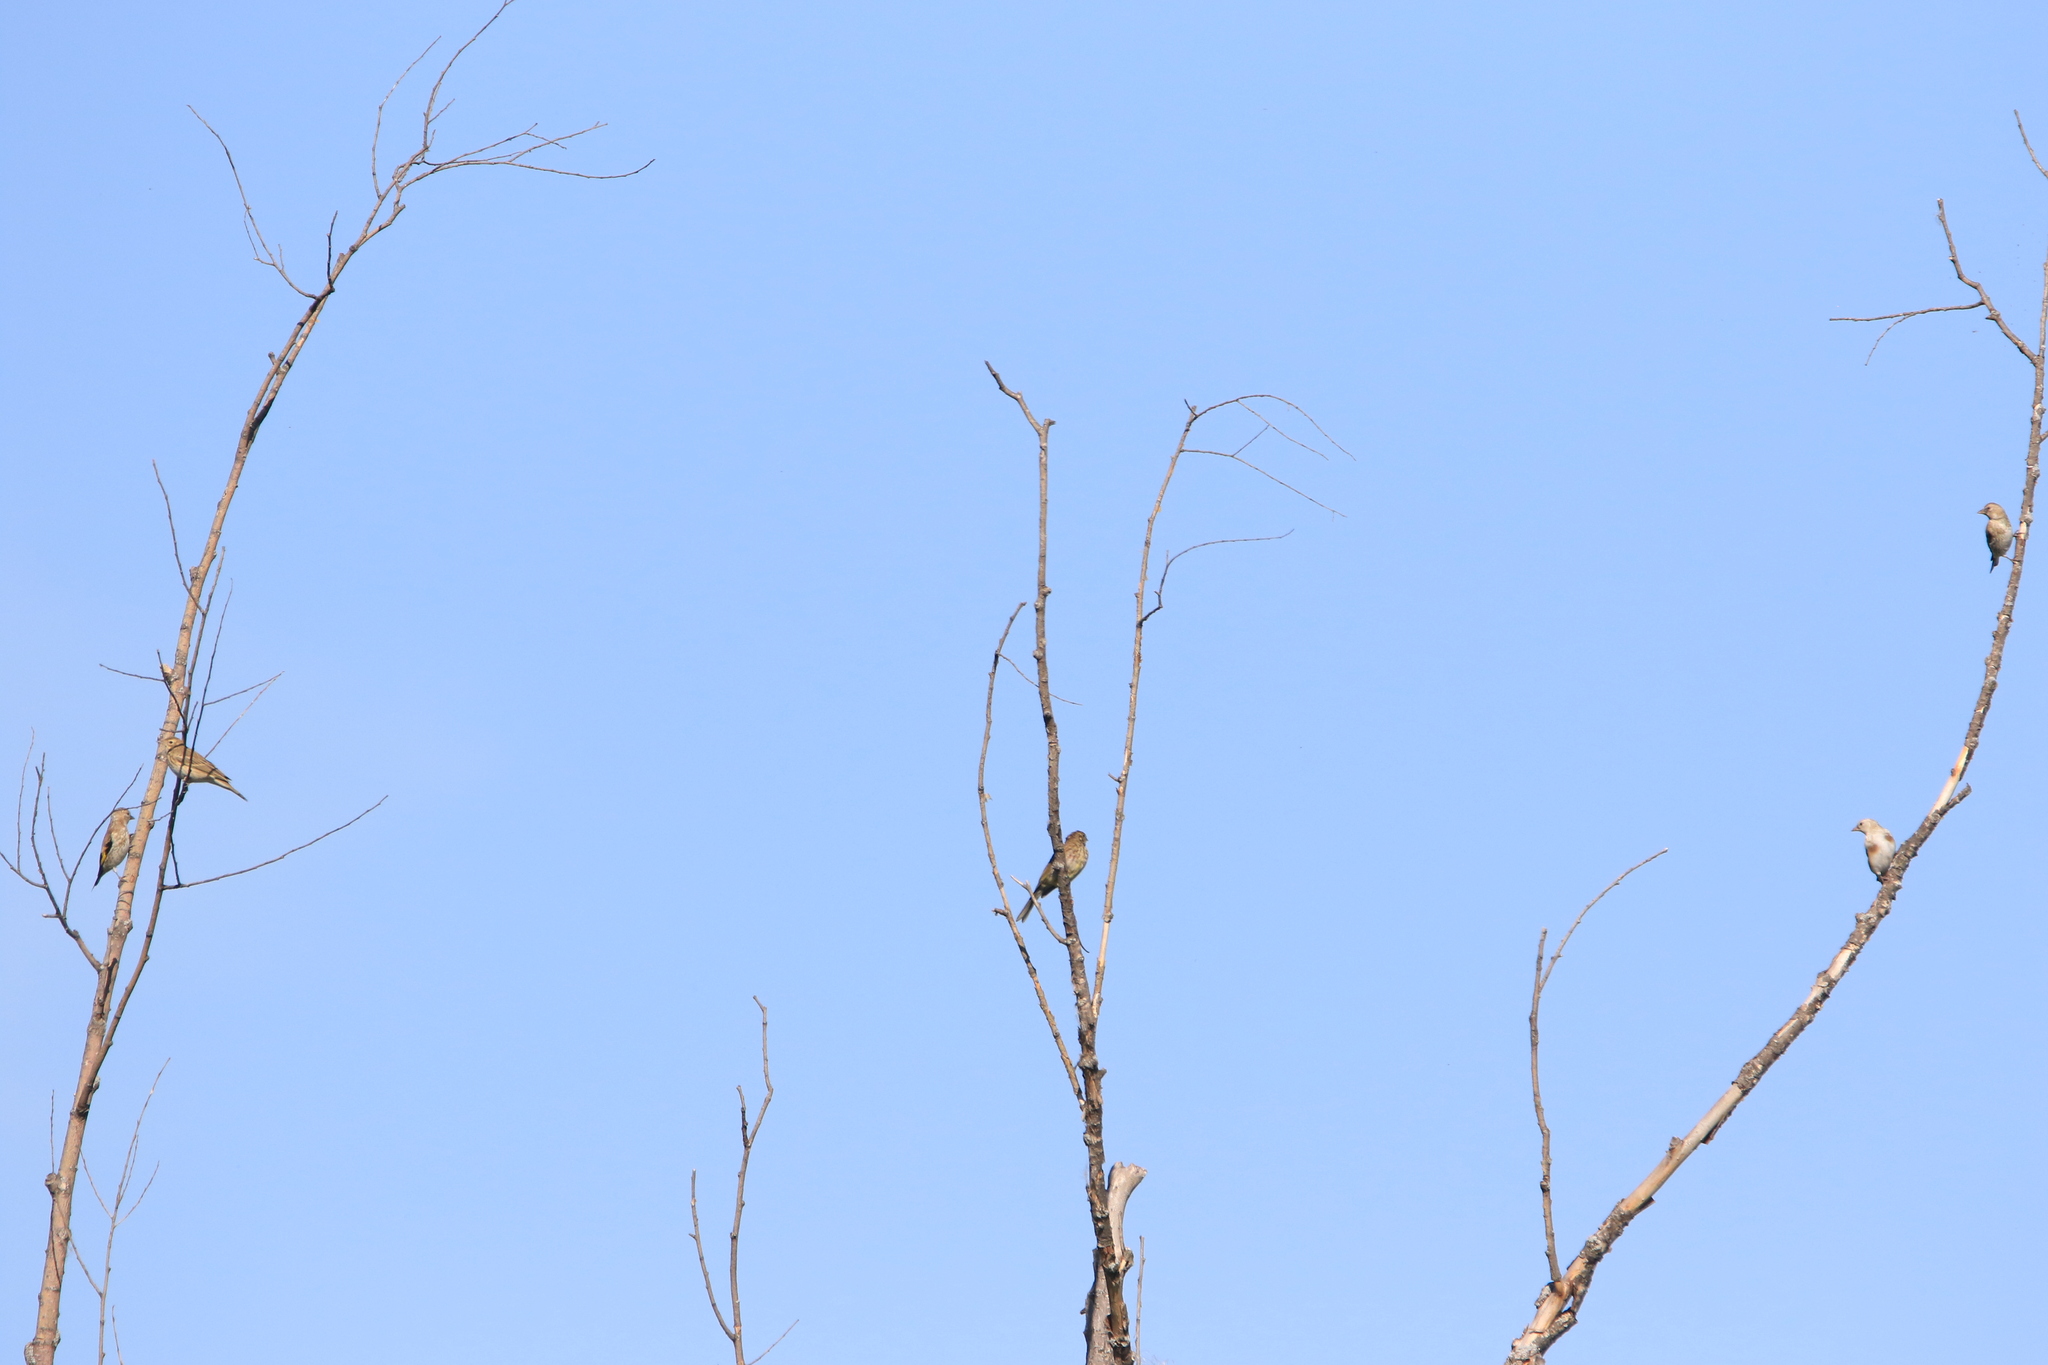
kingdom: Animalia
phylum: Chordata
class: Aves
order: Passeriformes
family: Fringillidae
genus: Carduelis
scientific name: Carduelis carduelis
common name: European goldfinch
